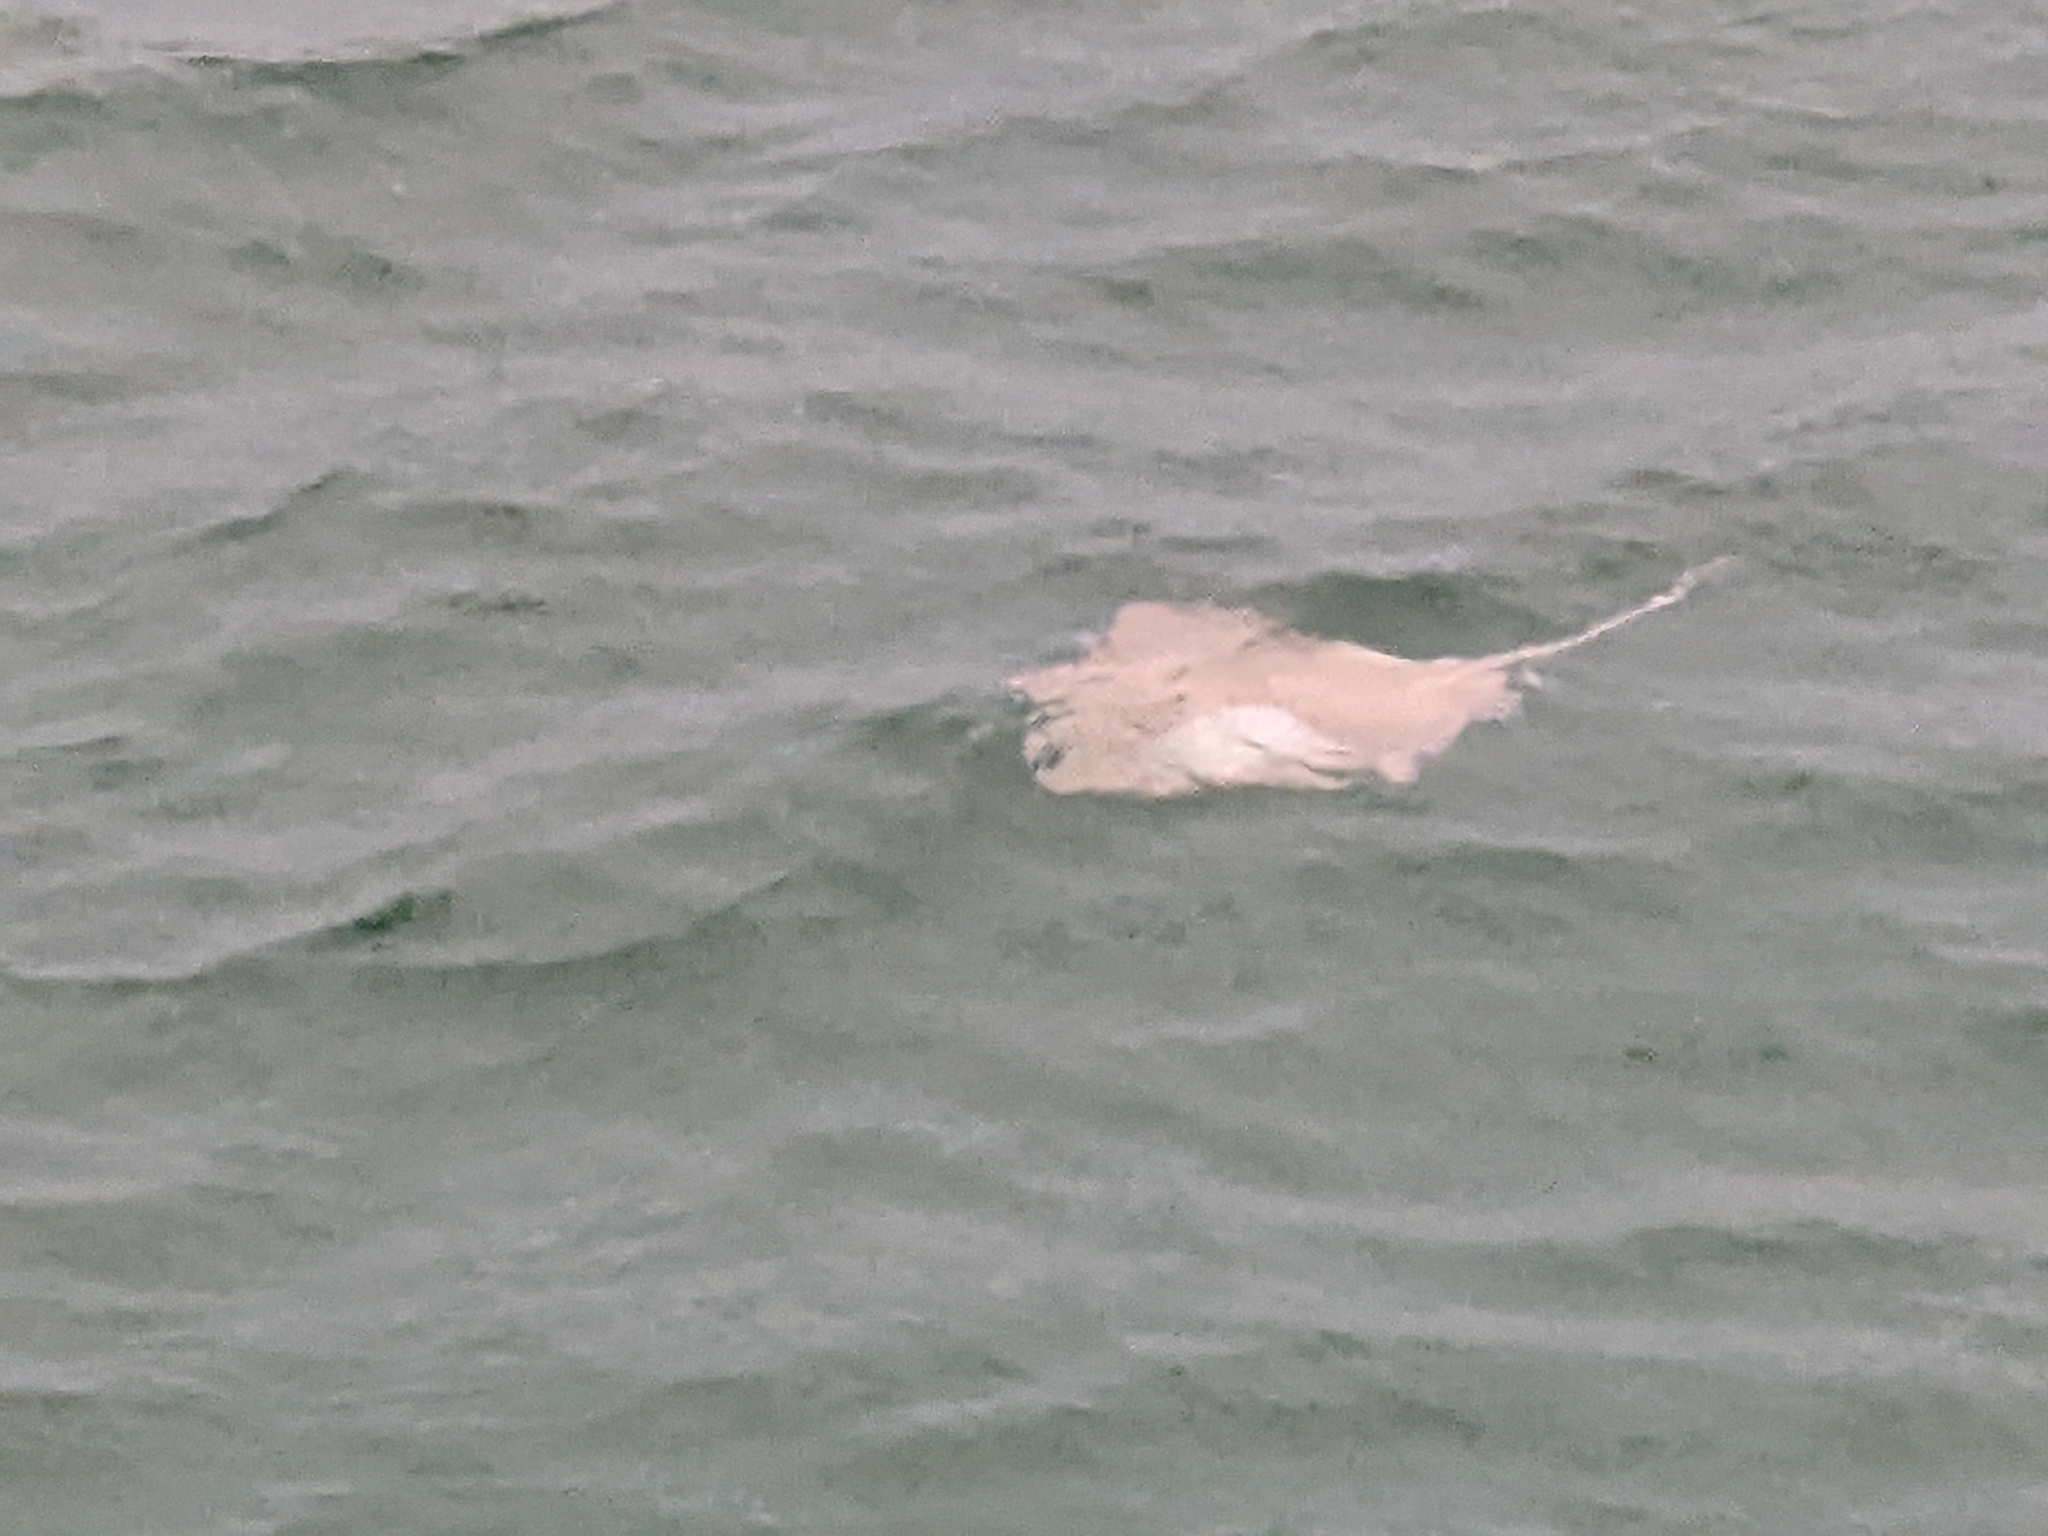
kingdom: Animalia
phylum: Chordata
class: Elasmobranchii
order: Myliobatiformes
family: Dasyatidae
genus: Hypanus
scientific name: Hypanus americanus
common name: Southern stingray
